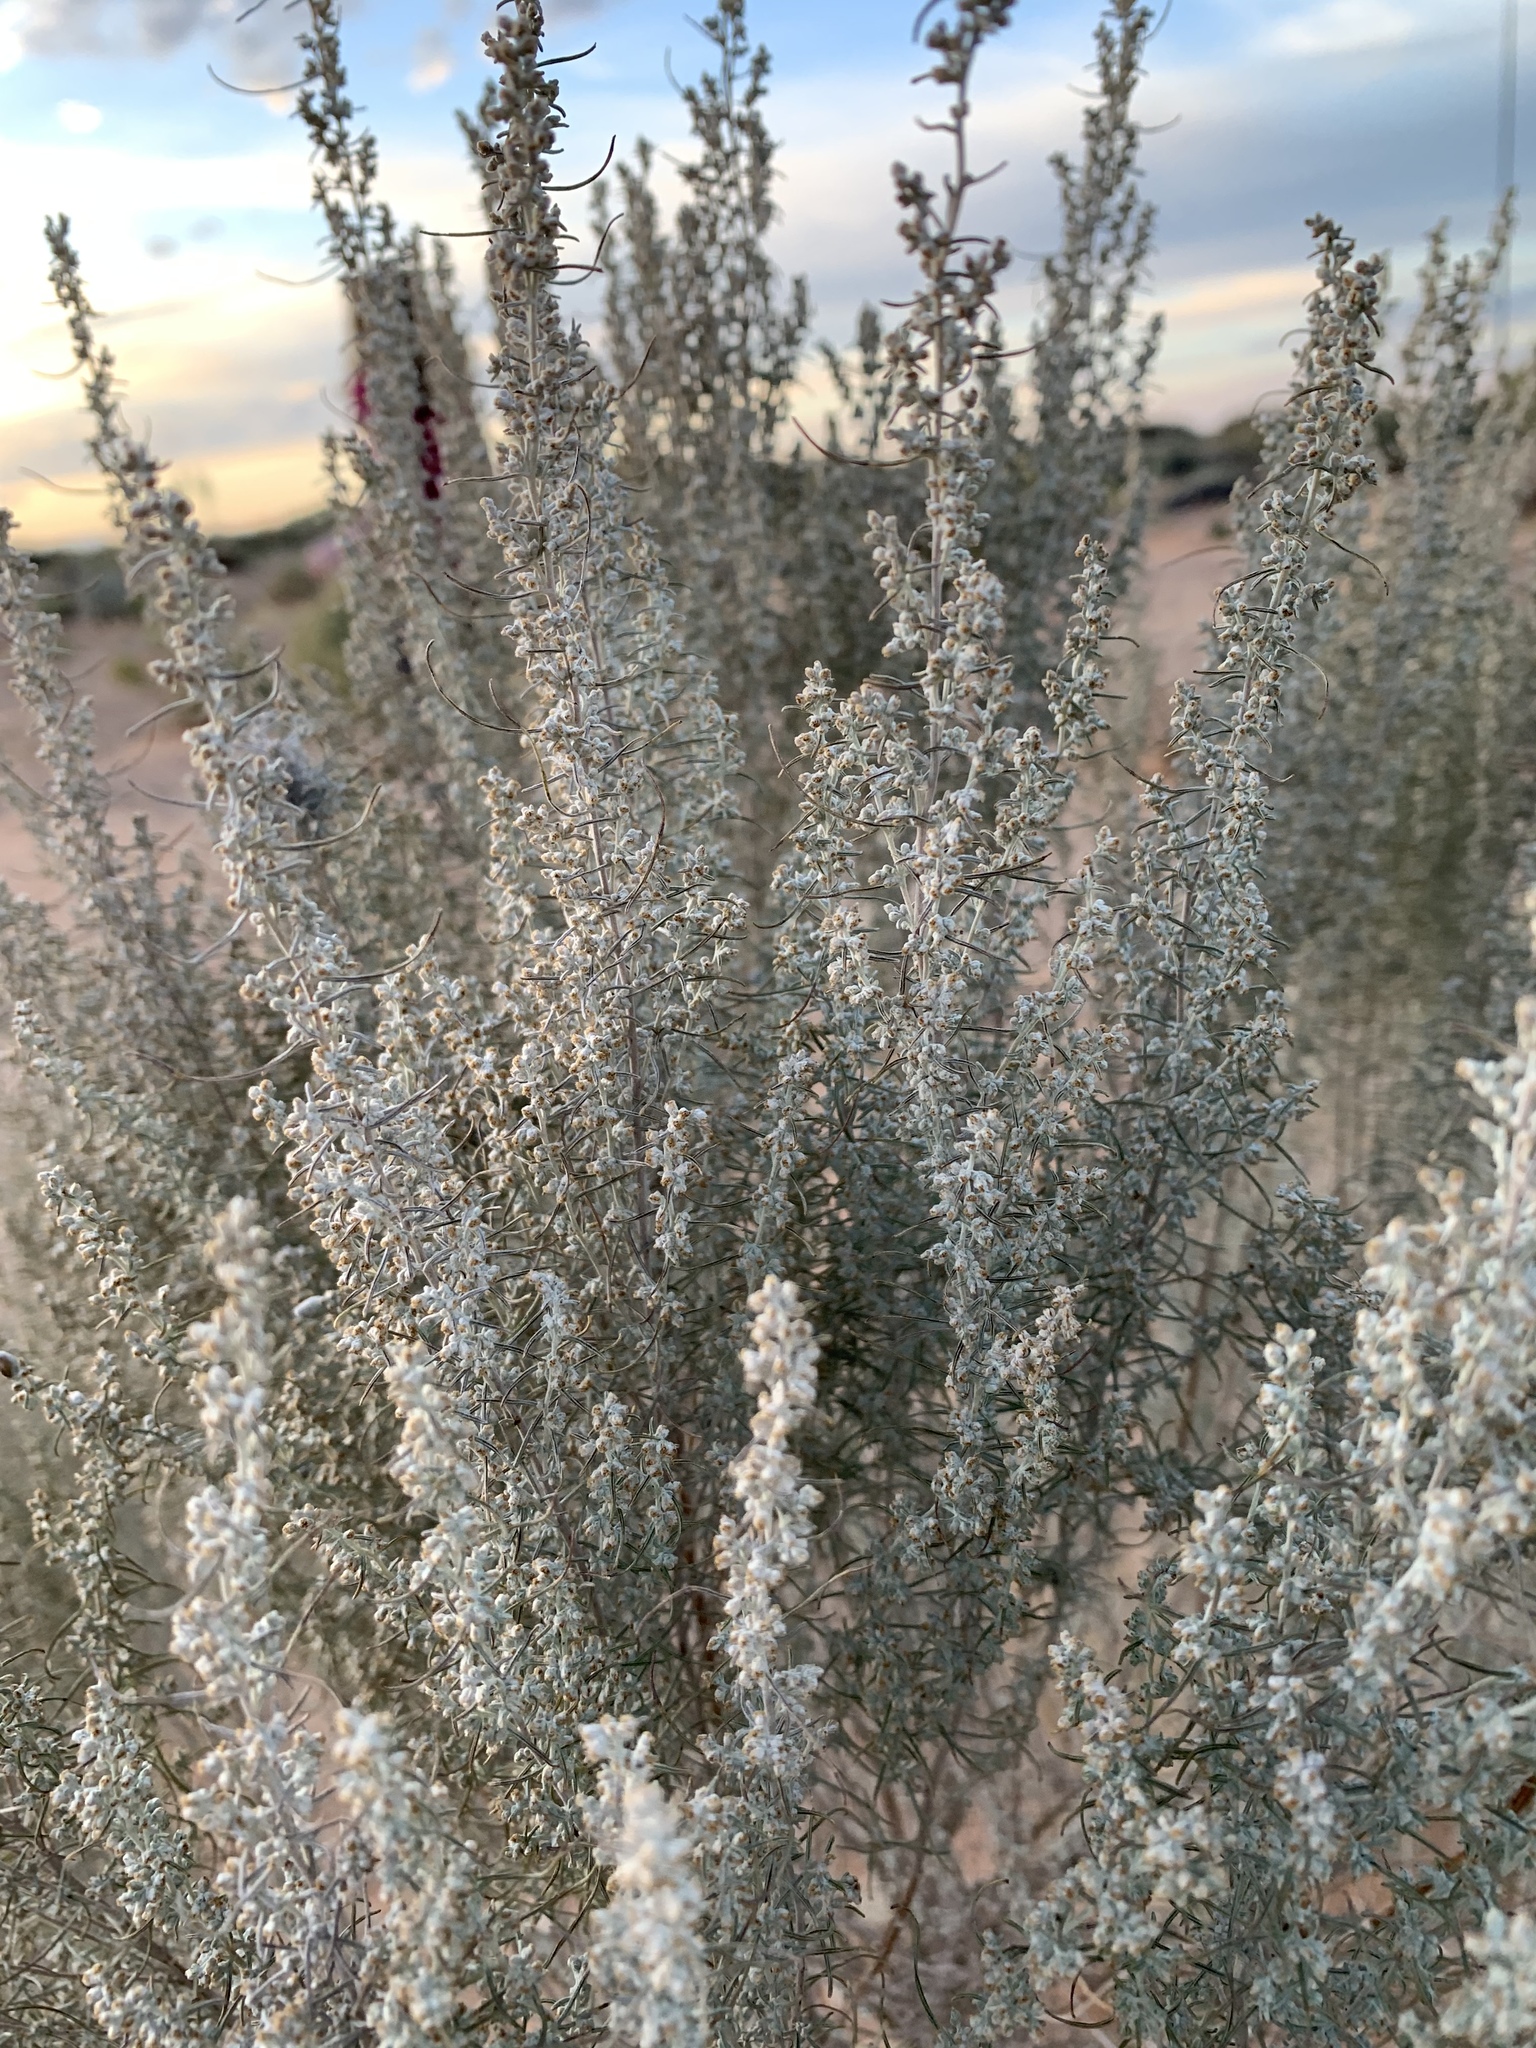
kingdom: Plantae
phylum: Tracheophyta
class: Magnoliopsida
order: Asterales
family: Asteraceae
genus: Artemisia
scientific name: Artemisia filifolia
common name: Sand-sage
